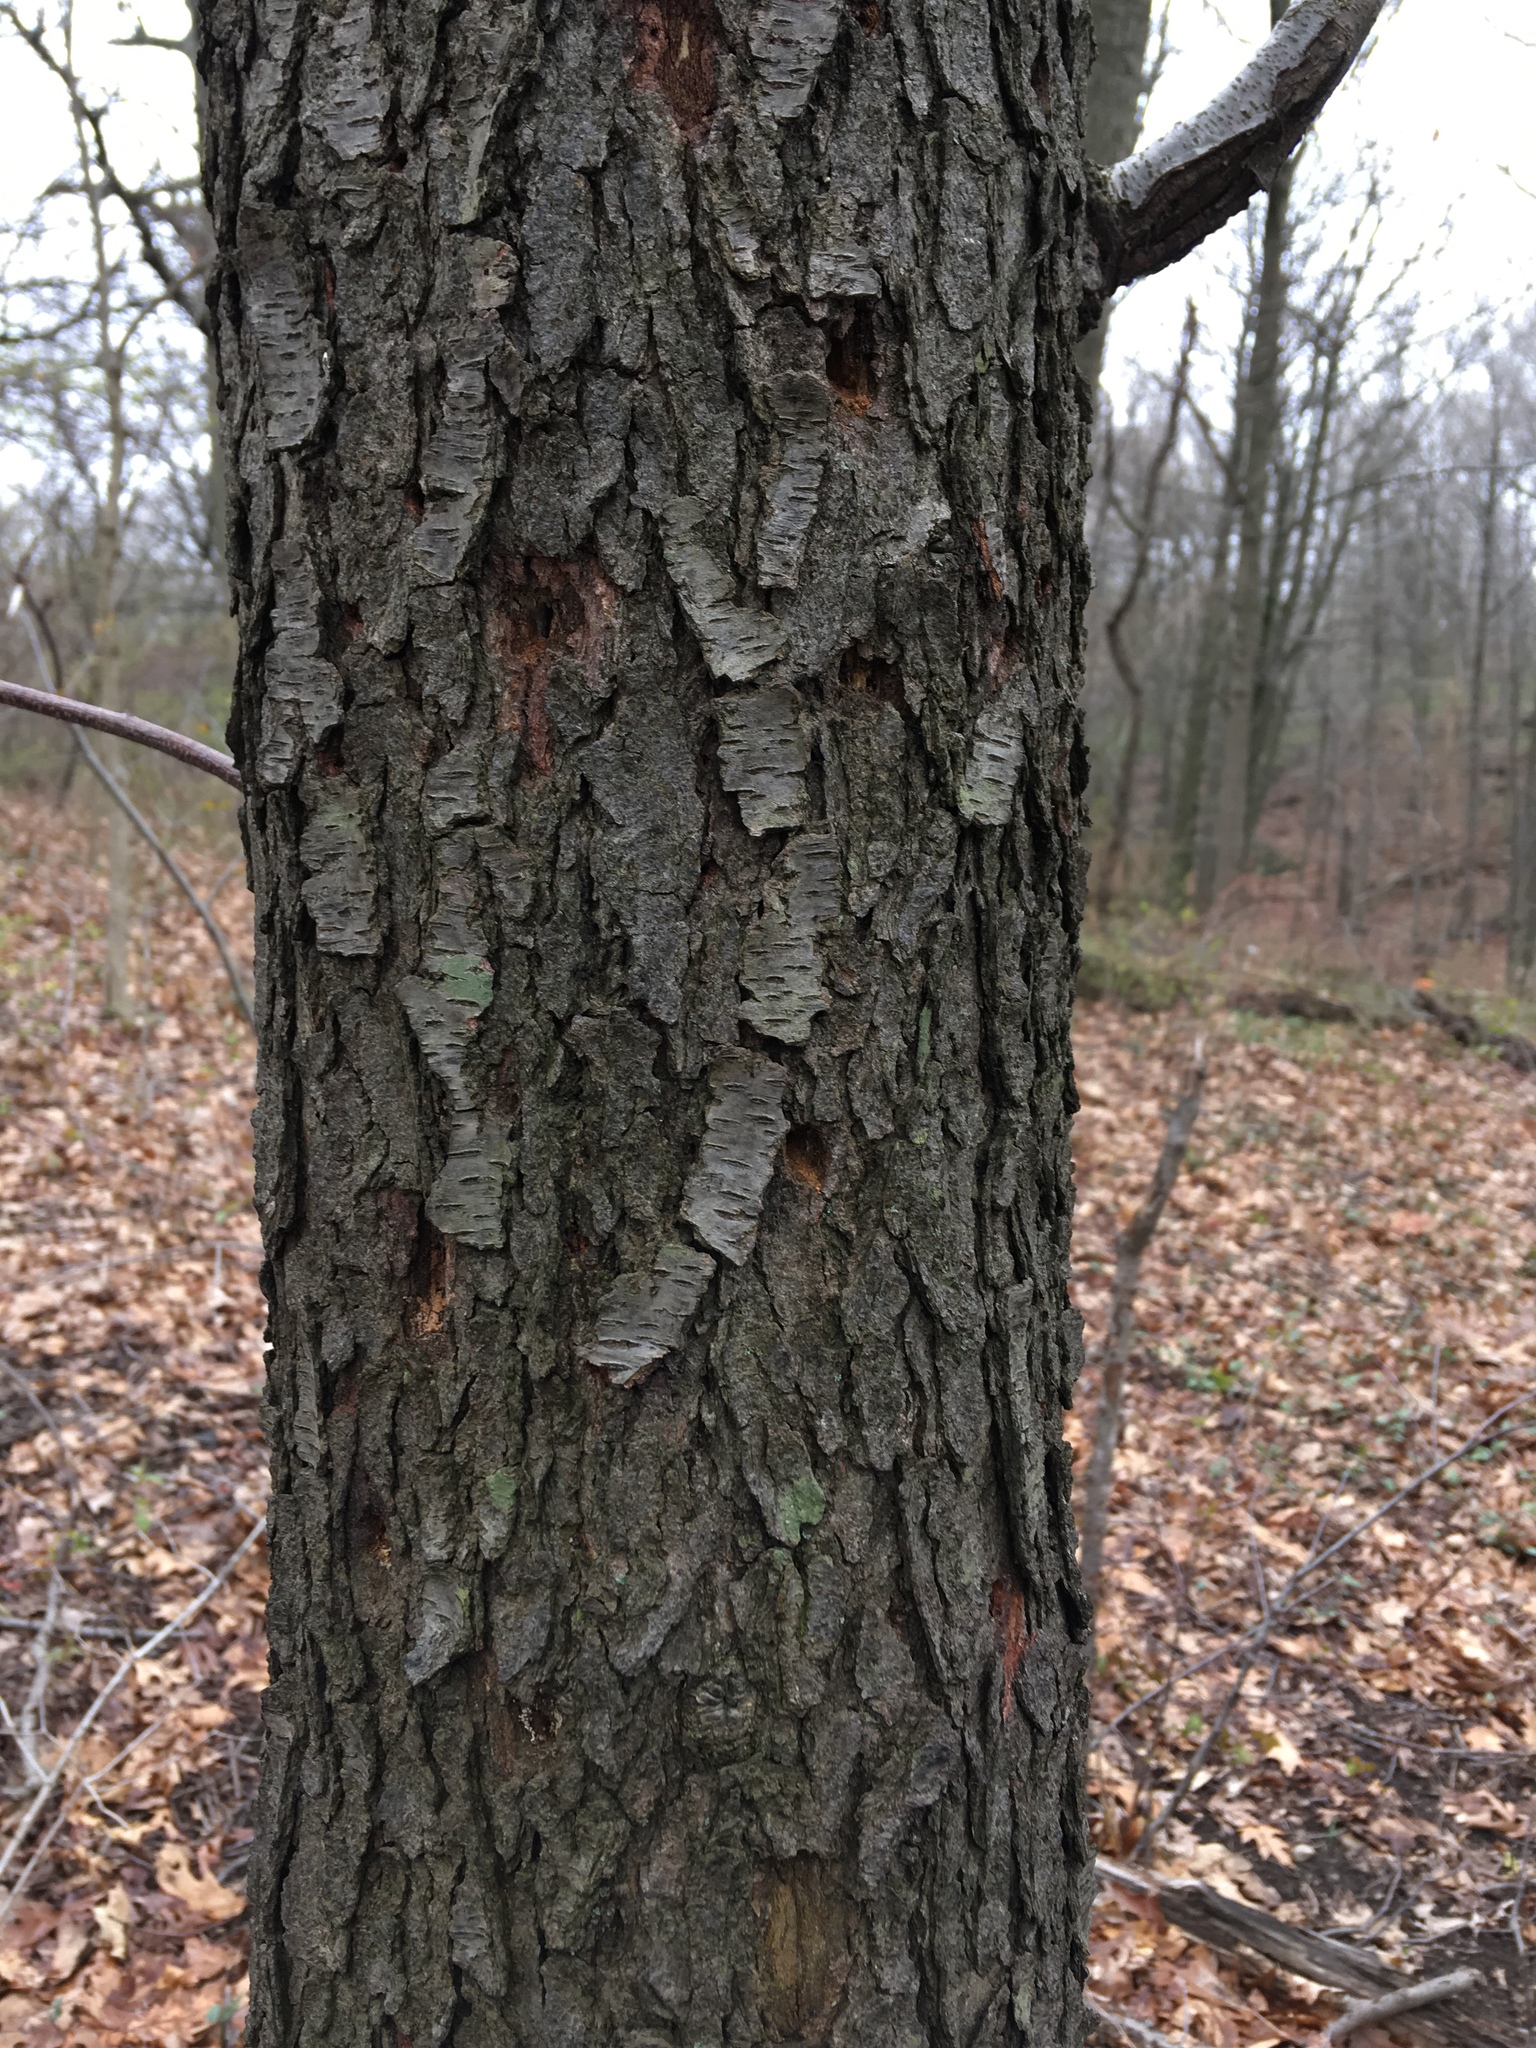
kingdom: Plantae
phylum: Tracheophyta
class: Magnoliopsida
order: Rosales
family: Rosaceae
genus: Prunus
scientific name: Prunus serotina
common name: Black cherry
